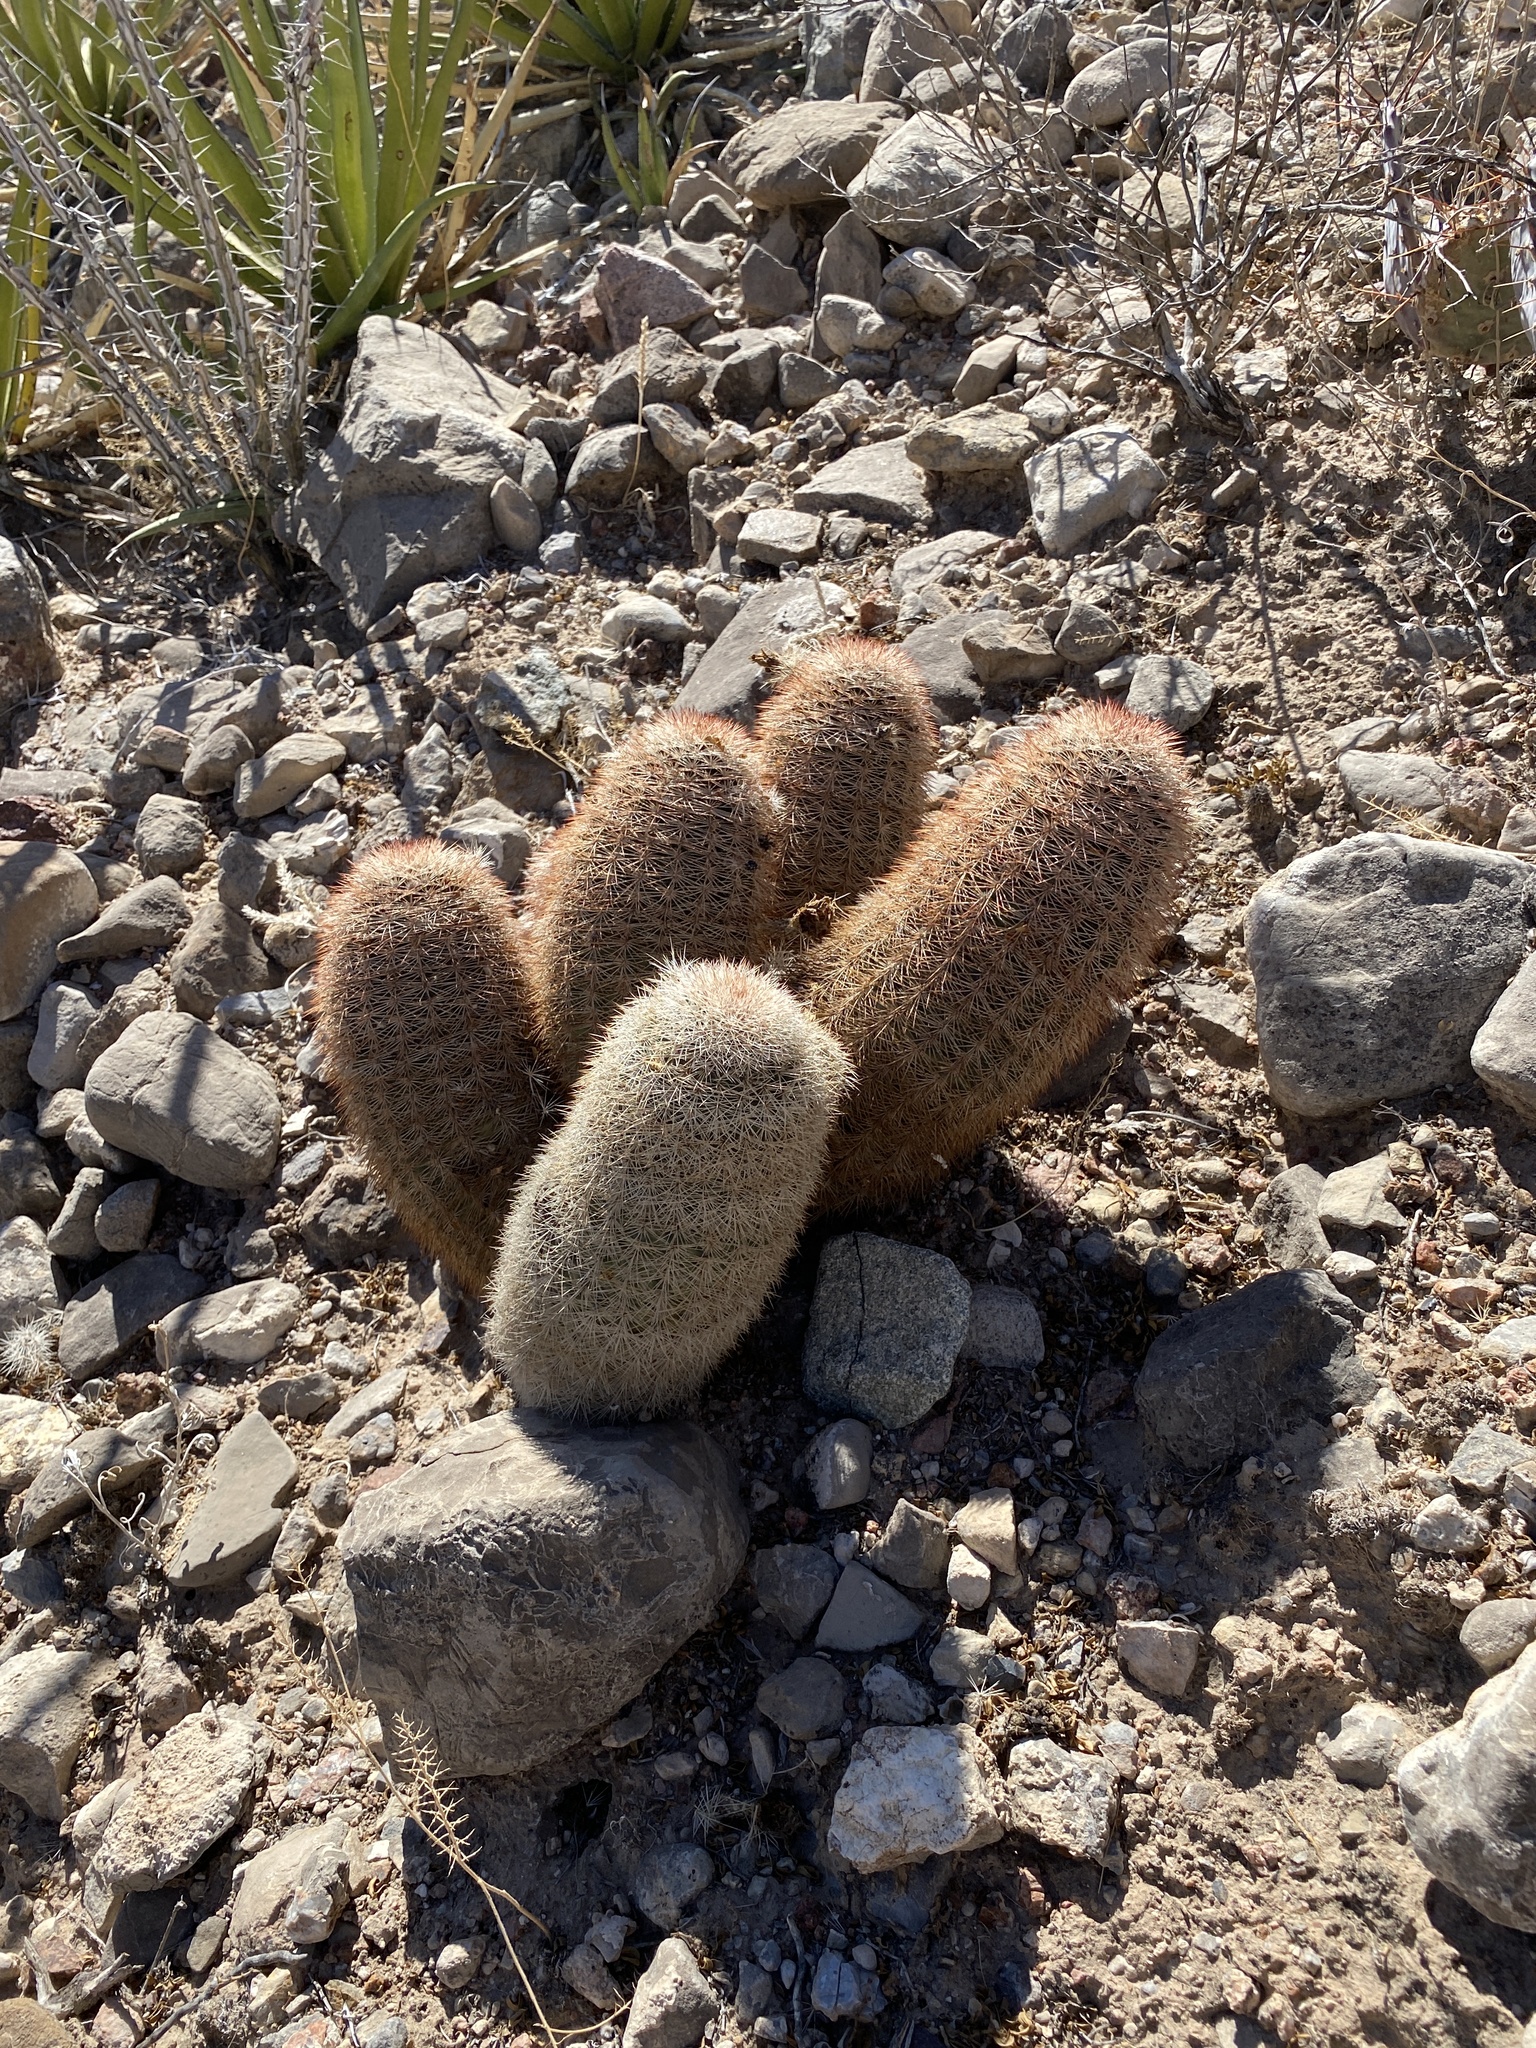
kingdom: Plantae
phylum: Tracheophyta
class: Magnoliopsida
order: Caryophyllales
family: Cactaceae
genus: Echinocereus
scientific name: Echinocereus dasyacanthus
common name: Spiny hedgehog cactus
